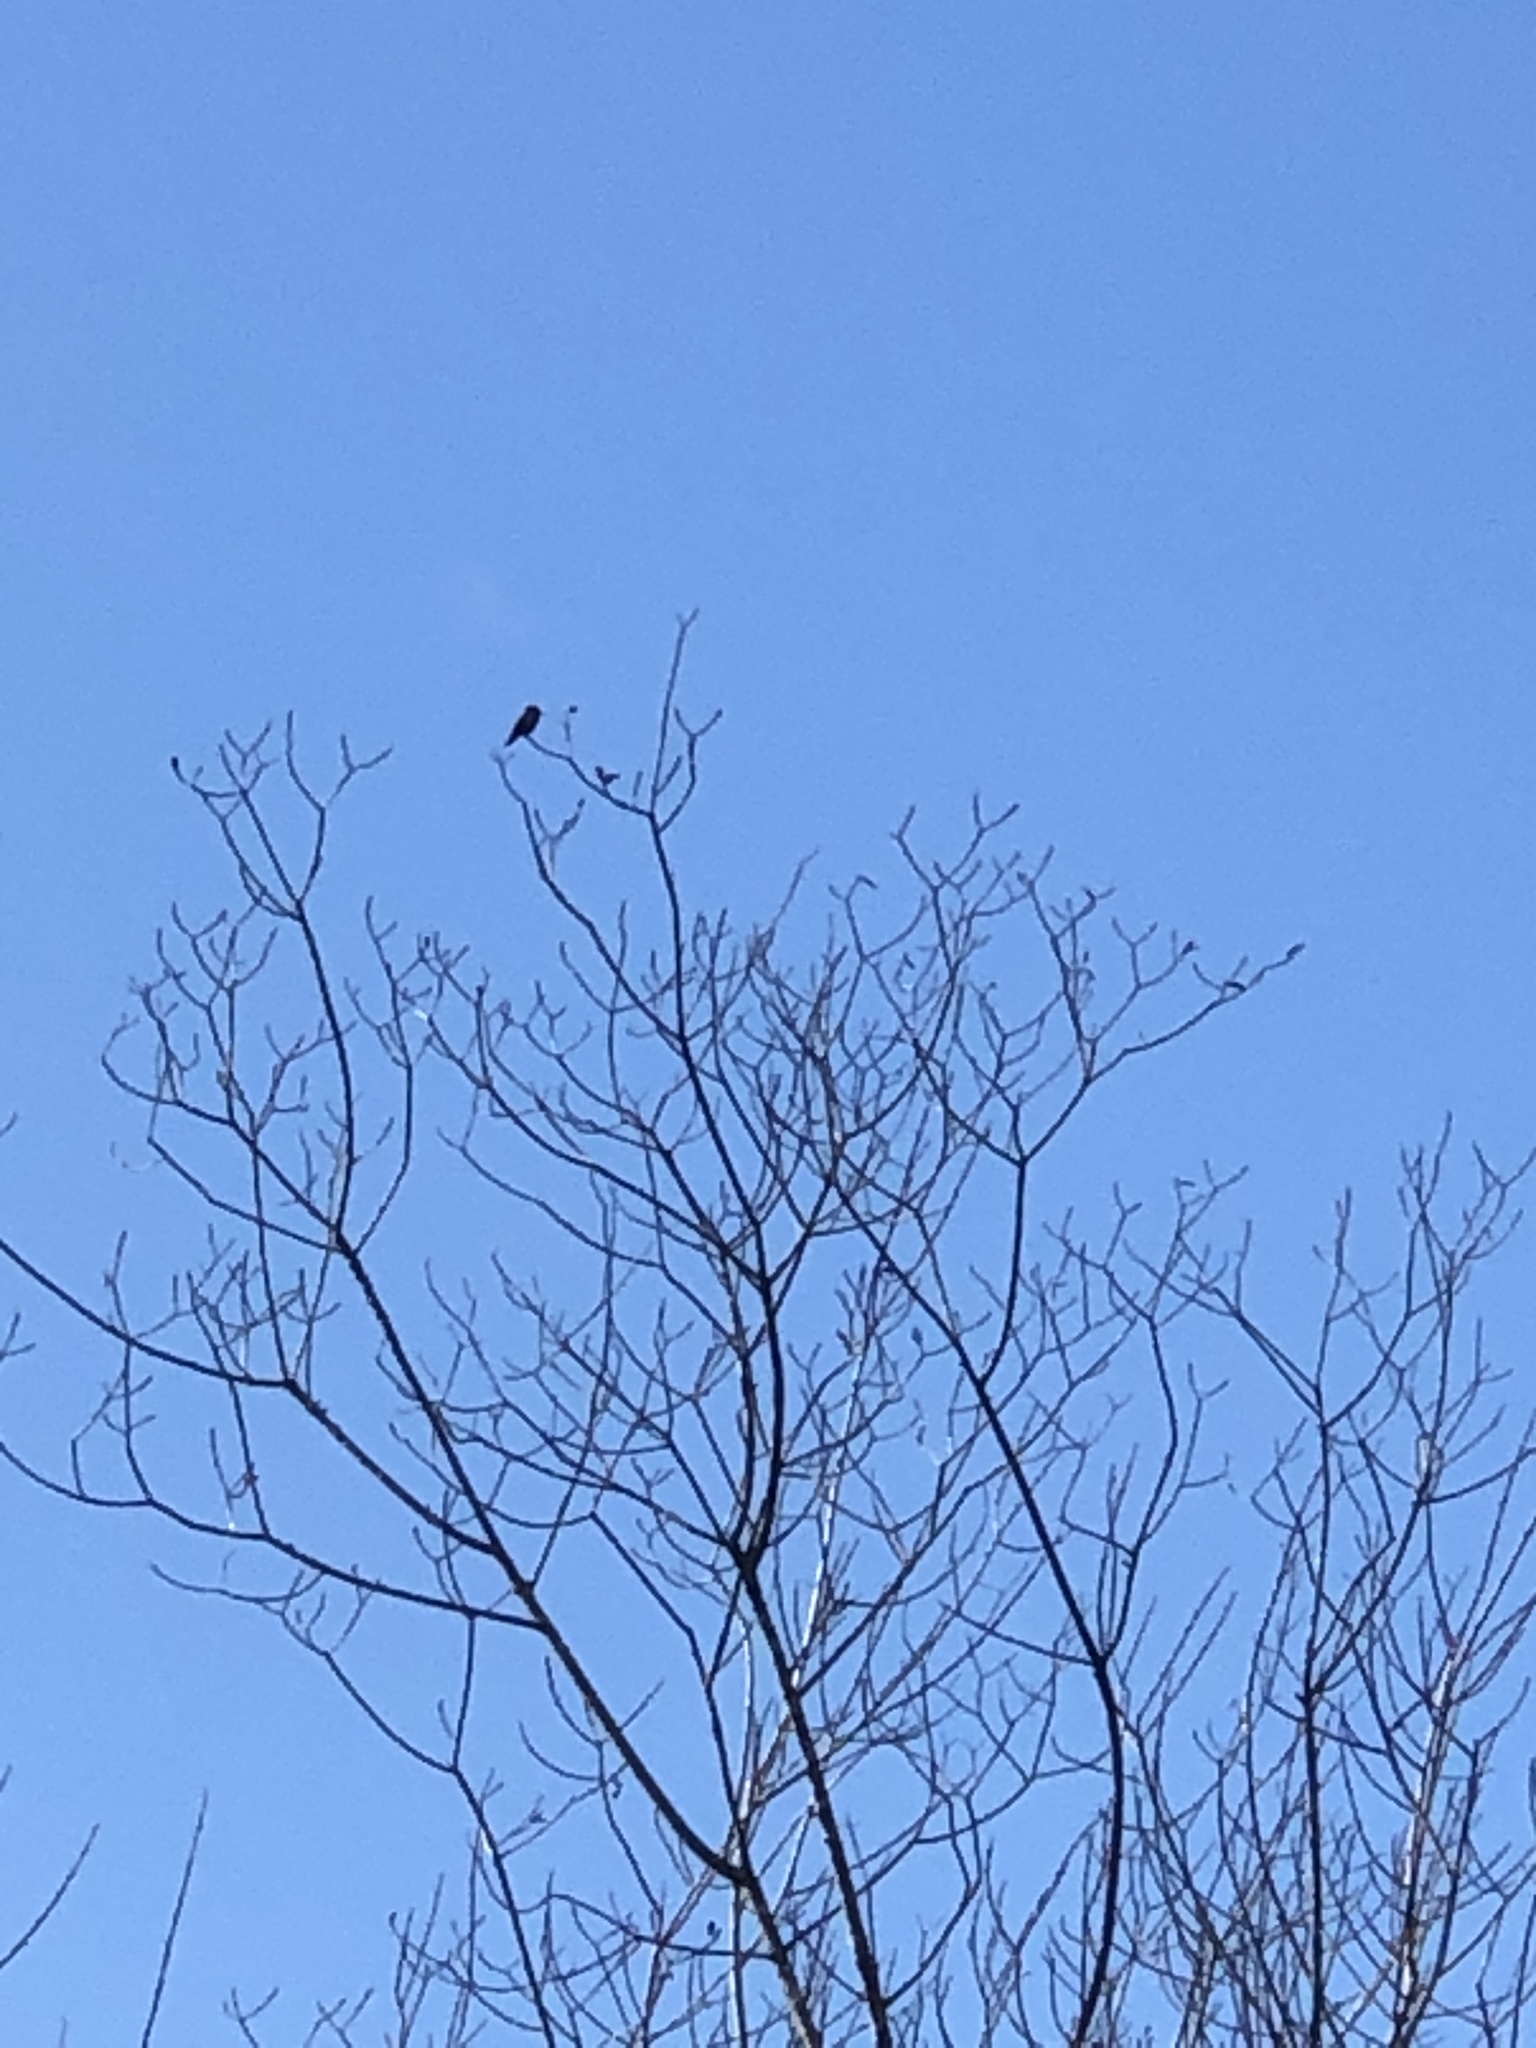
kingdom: Animalia
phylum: Chordata
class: Aves
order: Apodiformes
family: Trochilidae
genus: Calypte
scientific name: Calypte anna
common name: Anna's hummingbird
